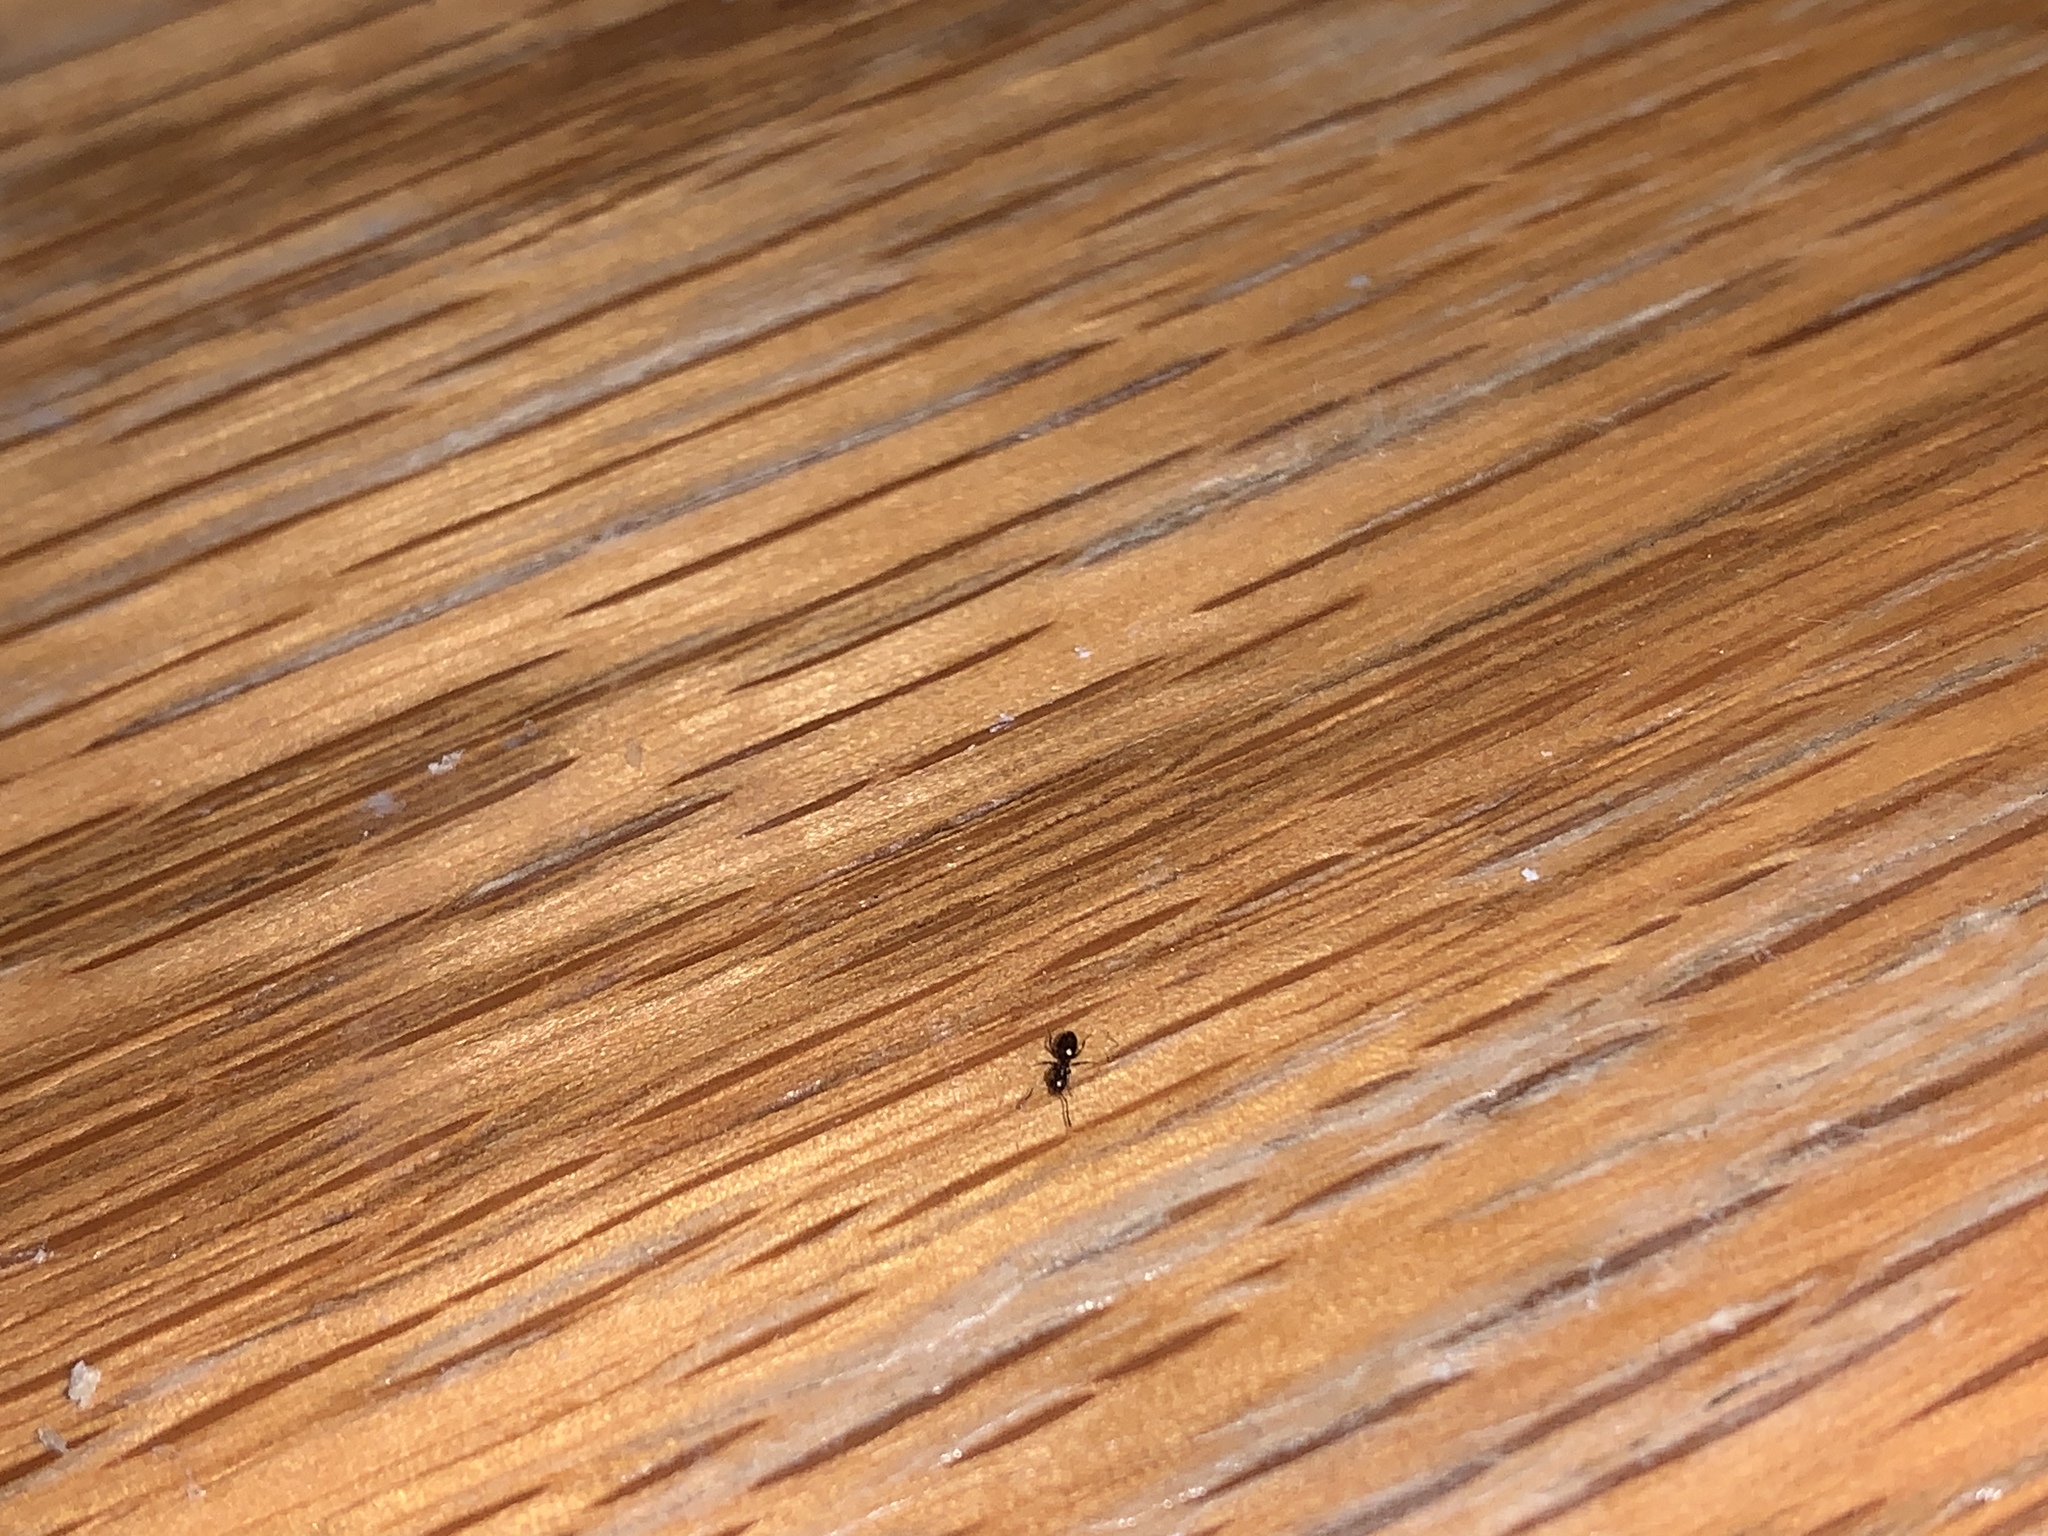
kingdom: Animalia
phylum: Arthropoda
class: Insecta
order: Hymenoptera
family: Formicidae
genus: Brachymyrmex
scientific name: Brachymyrmex patagonicus
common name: Dark rover ant
